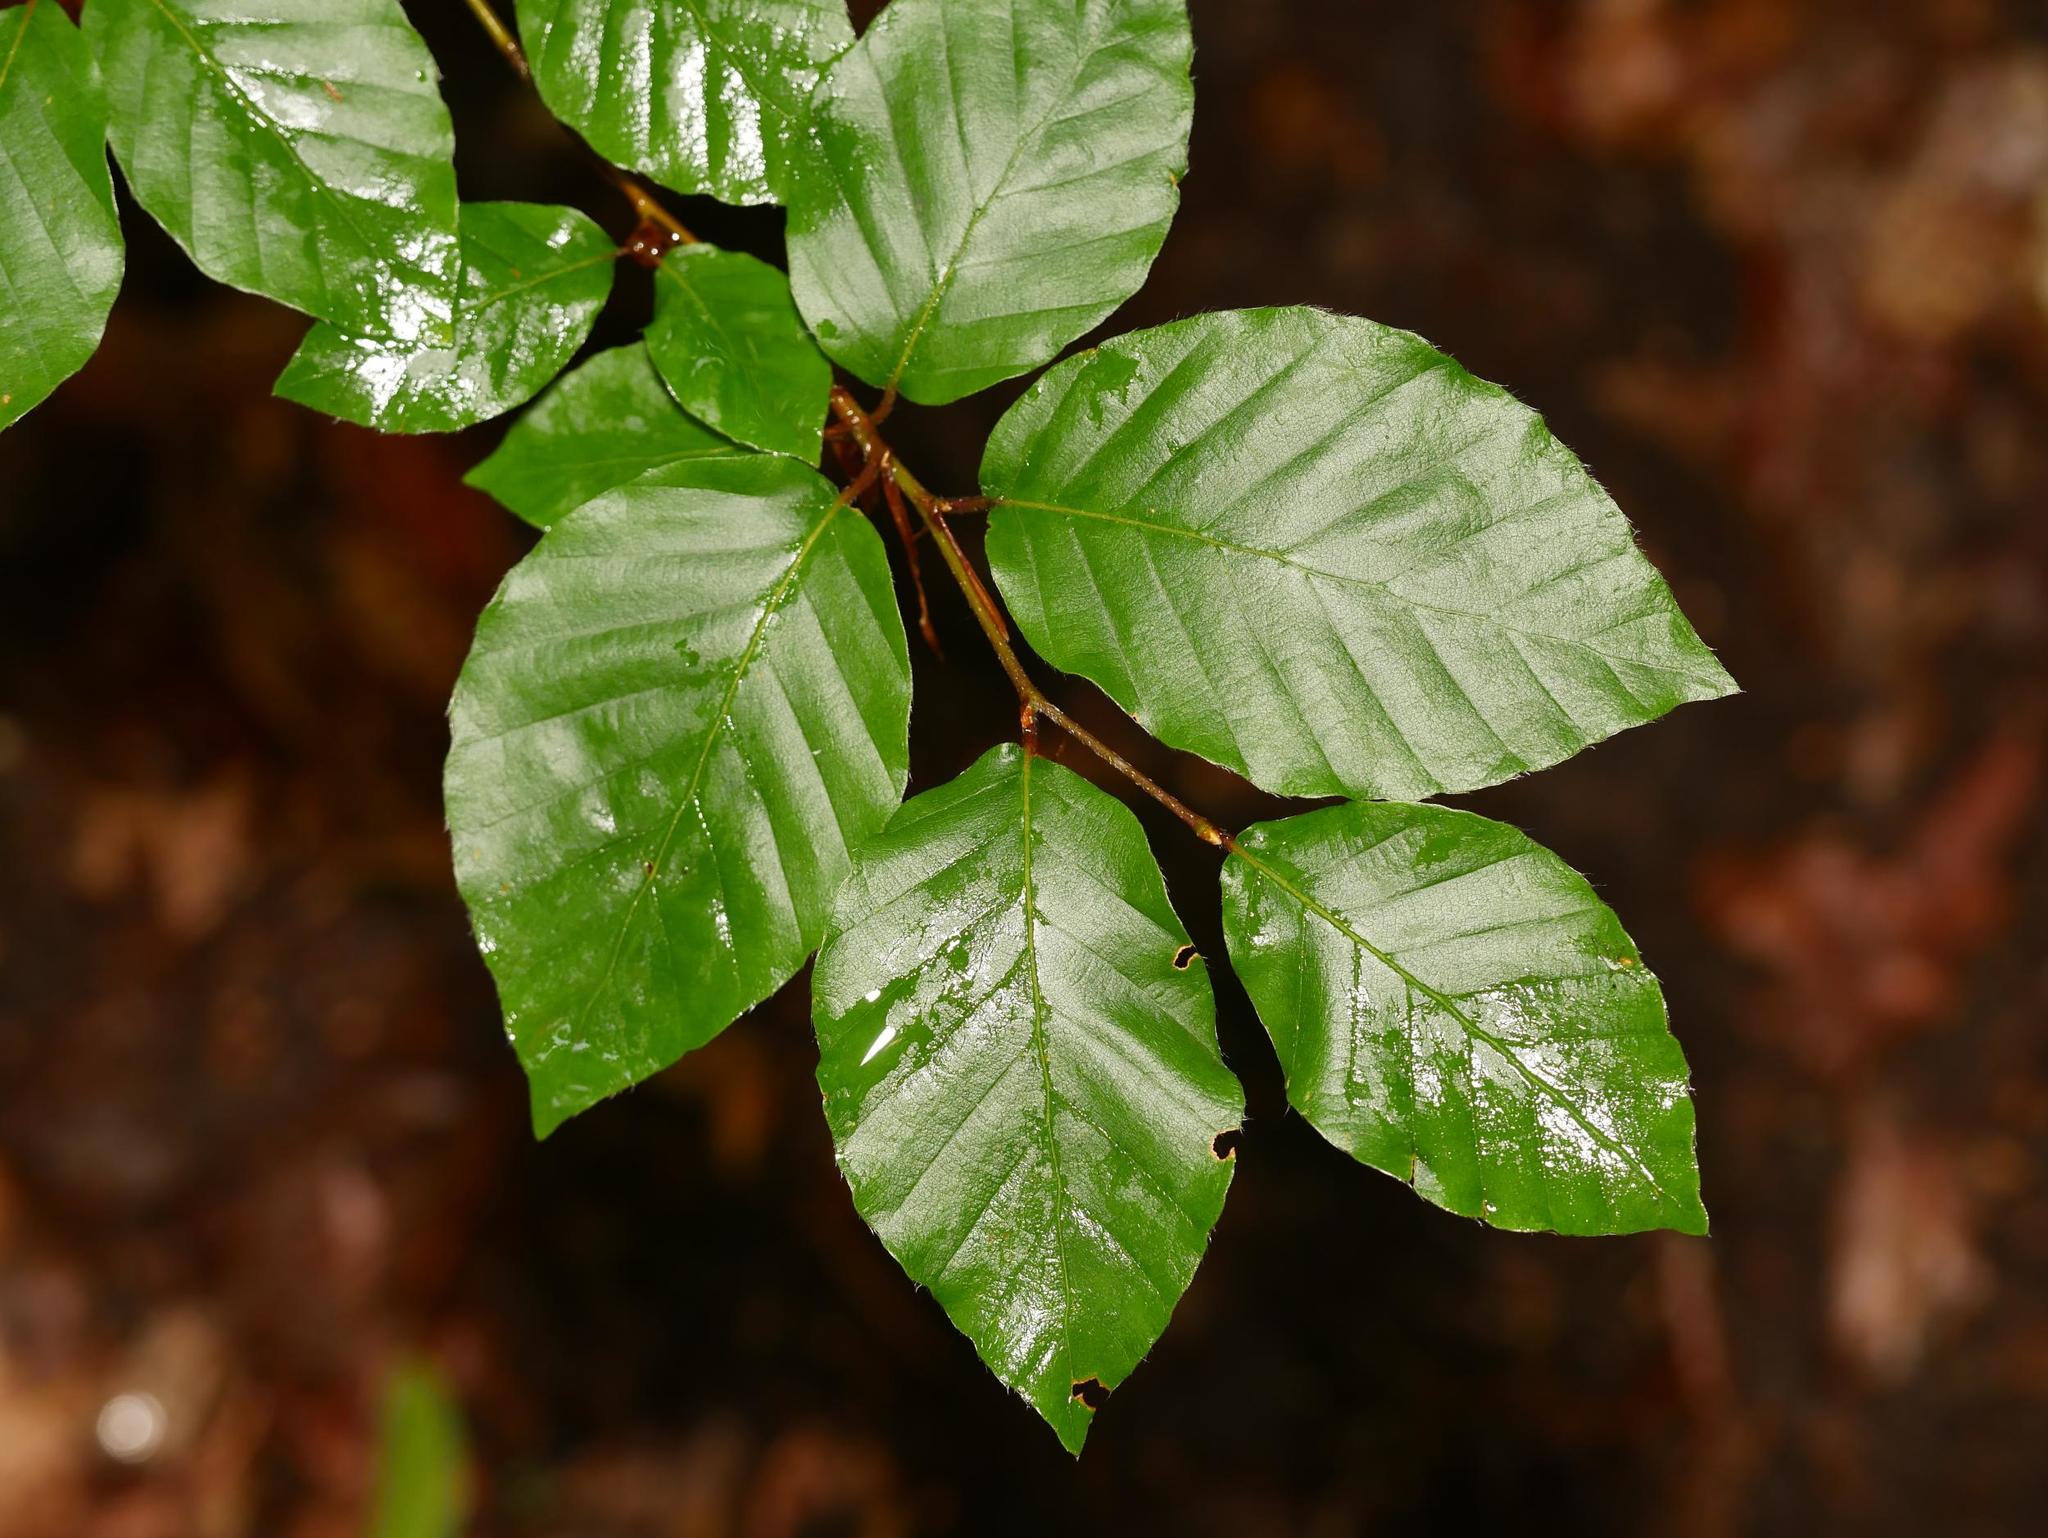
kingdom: Plantae
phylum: Tracheophyta
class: Magnoliopsida
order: Fagales
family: Fagaceae
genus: Fagus
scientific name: Fagus sylvatica
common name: Beech
